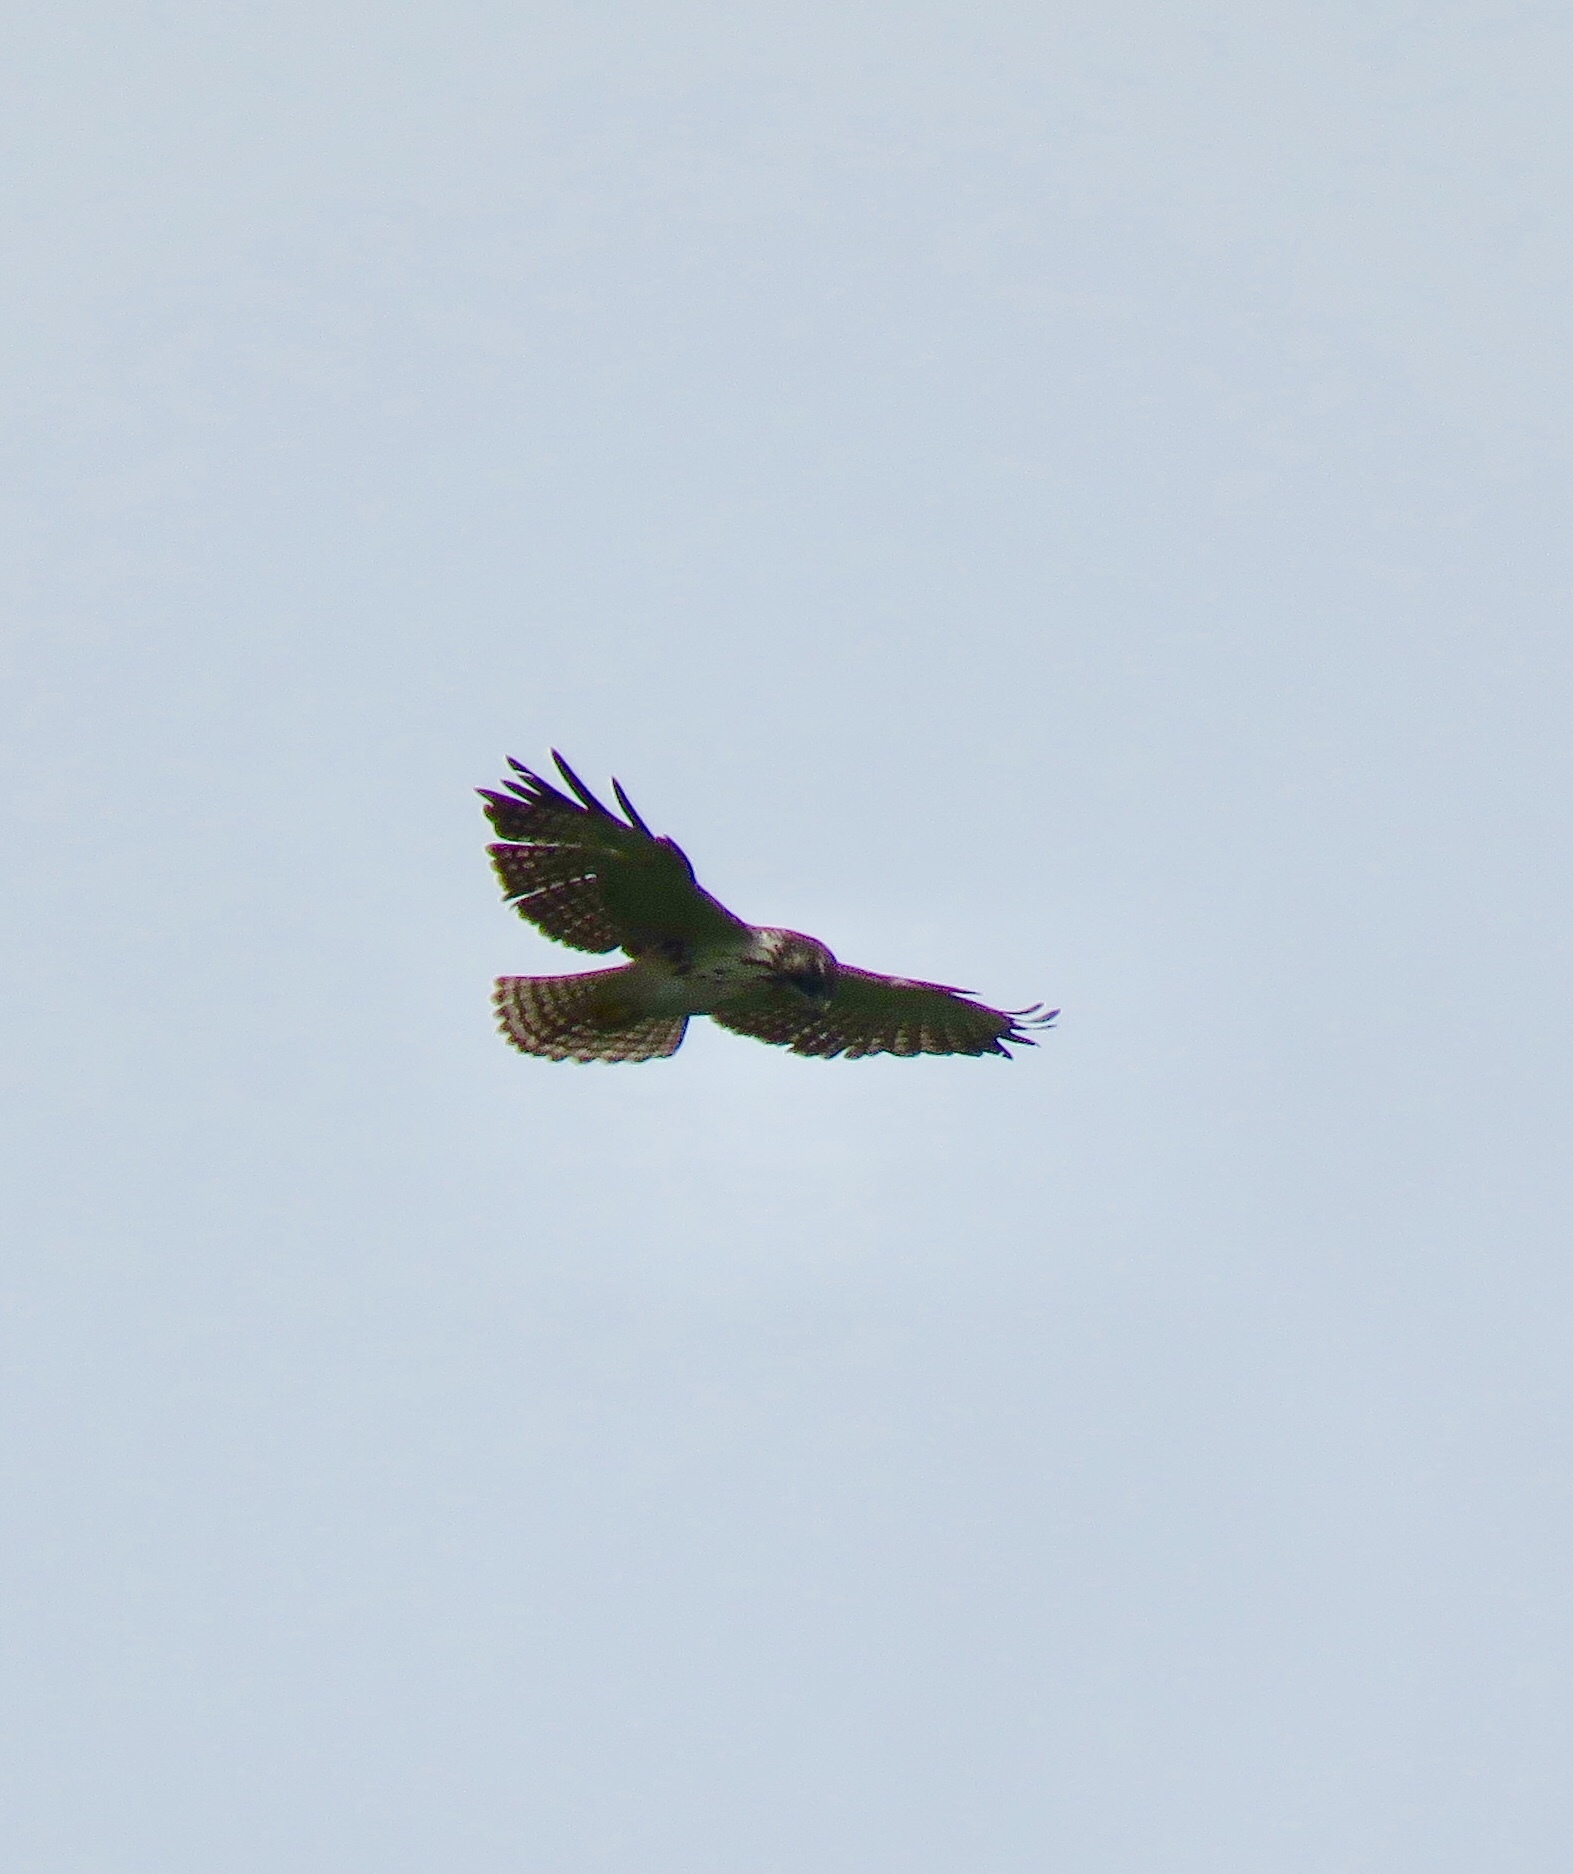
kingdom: Animalia
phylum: Chordata
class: Aves
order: Accipitriformes
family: Accipitridae
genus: Buteo
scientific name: Buteo brachyurus
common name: Short-tailed hawk
